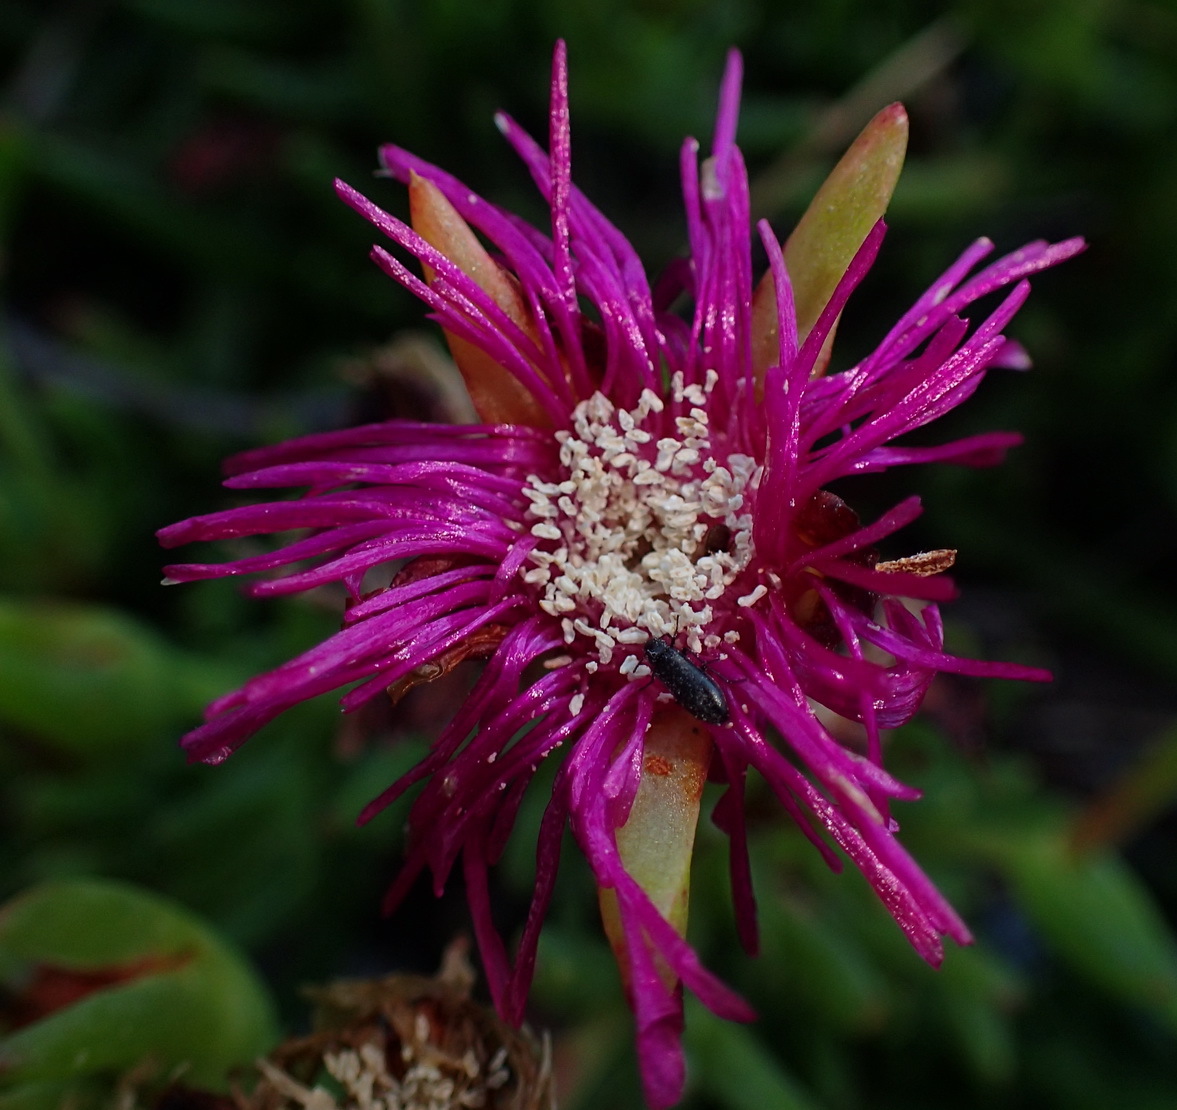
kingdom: Plantae
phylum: Tracheophyta
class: Magnoliopsida
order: Caryophyllales
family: Aizoaceae
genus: Ruschia
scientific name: Ruschia duthiae
